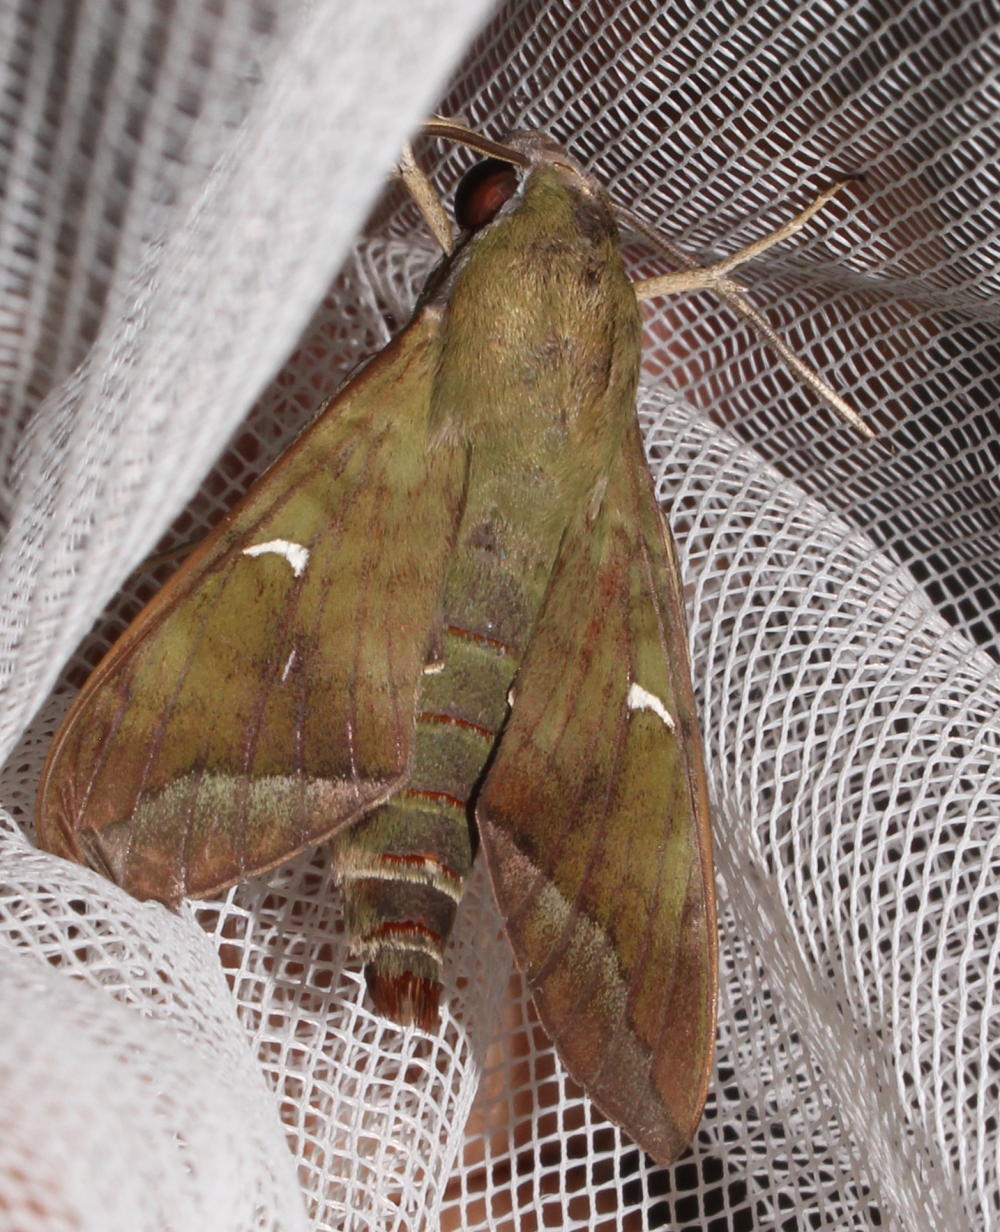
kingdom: Animalia
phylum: Arthropoda
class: Insecta
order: Lepidoptera
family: Sphingidae
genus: Nephele
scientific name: Nephele comma
